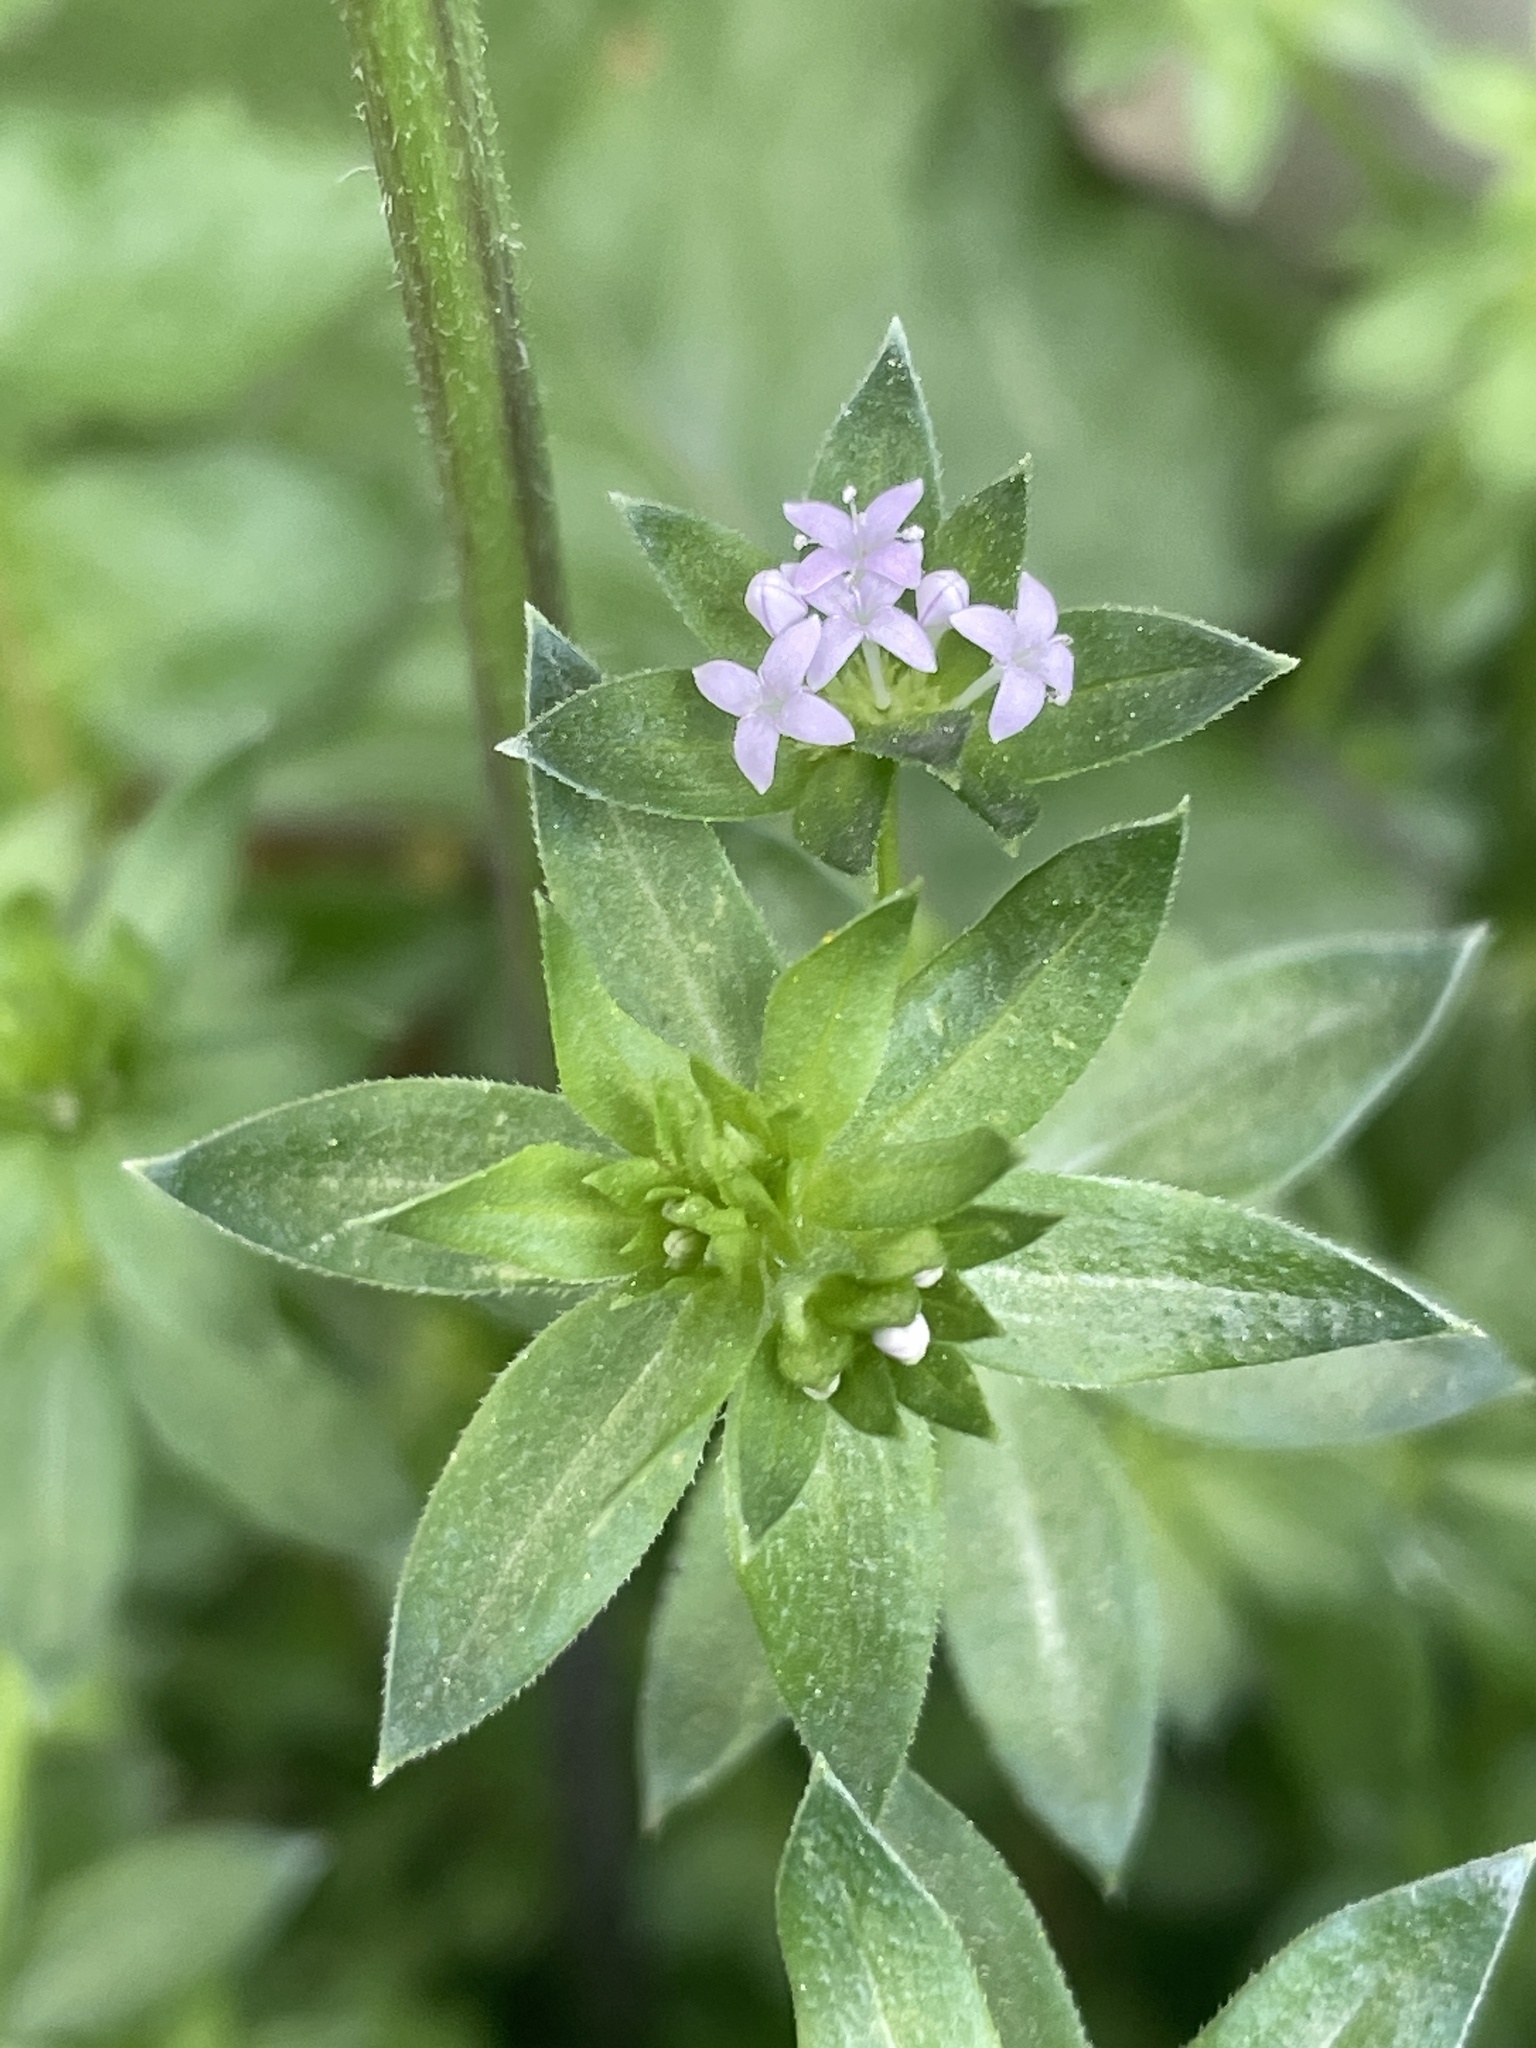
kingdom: Plantae
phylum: Tracheophyta
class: Magnoliopsida
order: Gentianales
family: Rubiaceae
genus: Sherardia
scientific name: Sherardia arvensis
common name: Field madder
